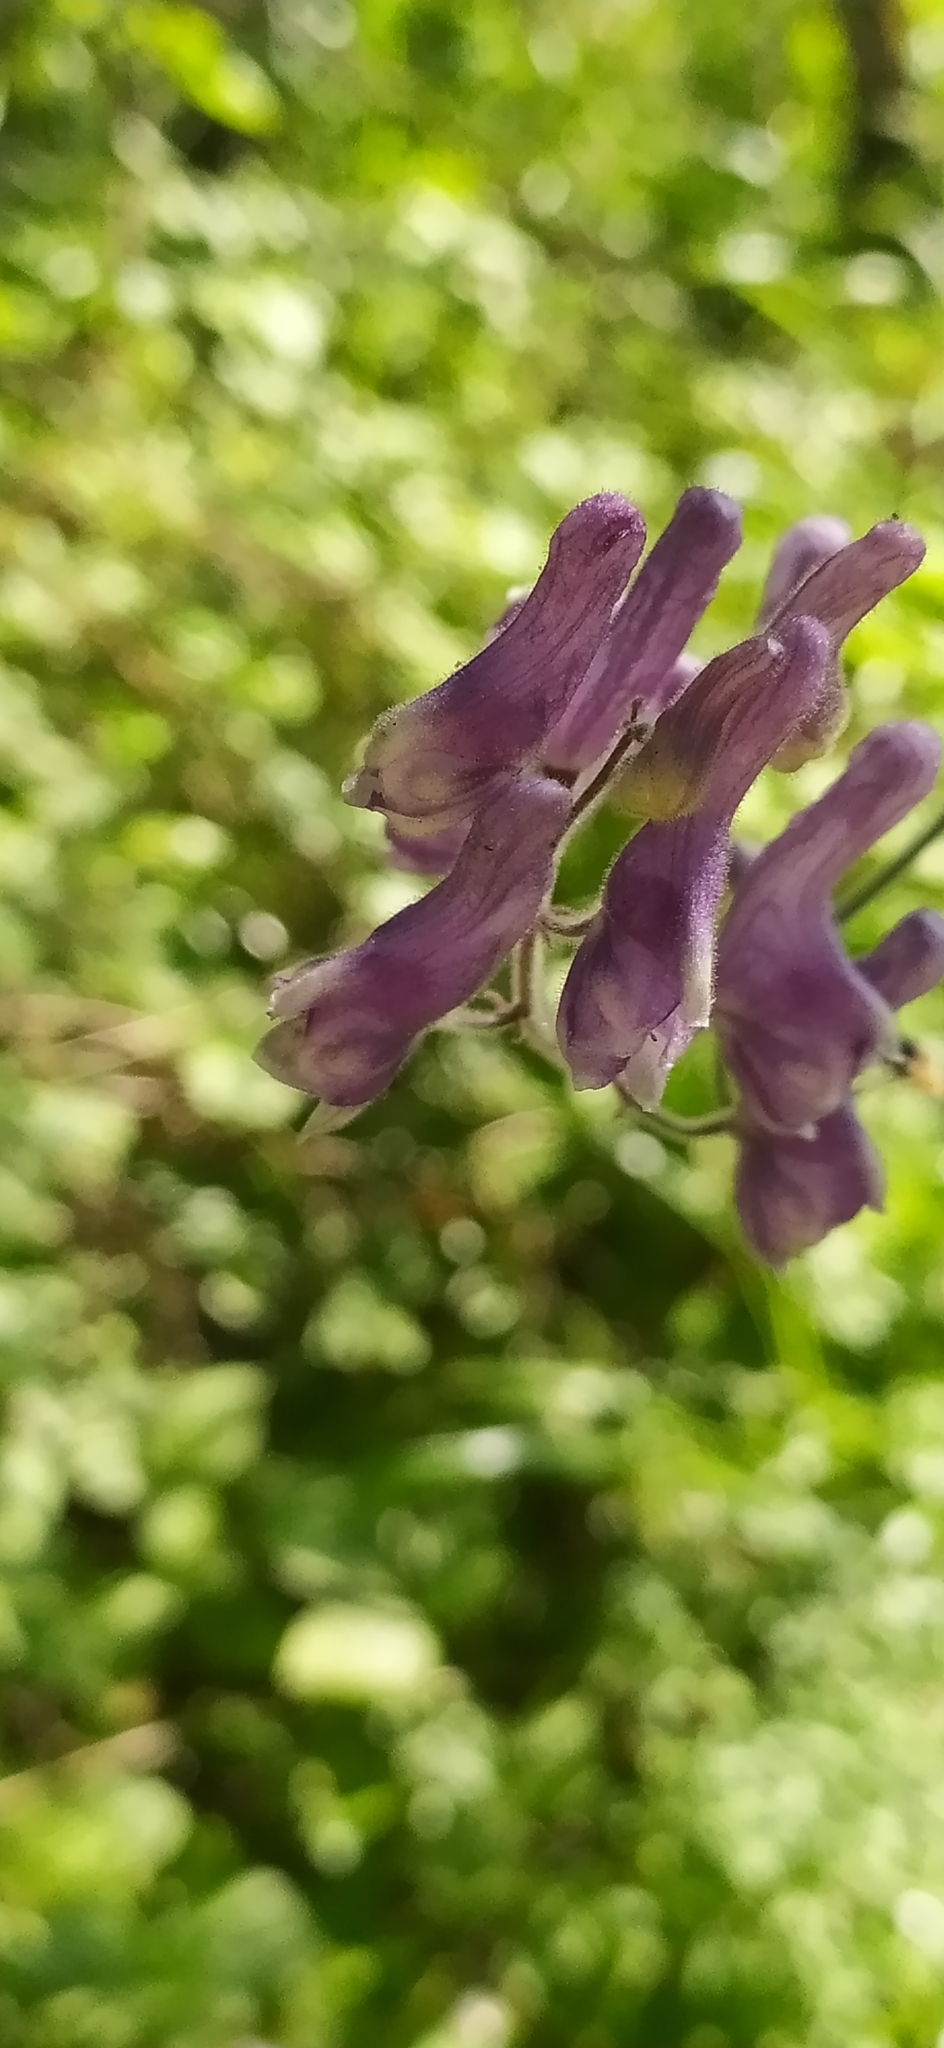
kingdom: Plantae
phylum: Tracheophyta
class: Magnoliopsida
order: Ranunculales
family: Ranunculaceae
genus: Aconitum
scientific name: Aconitum septentrionale
